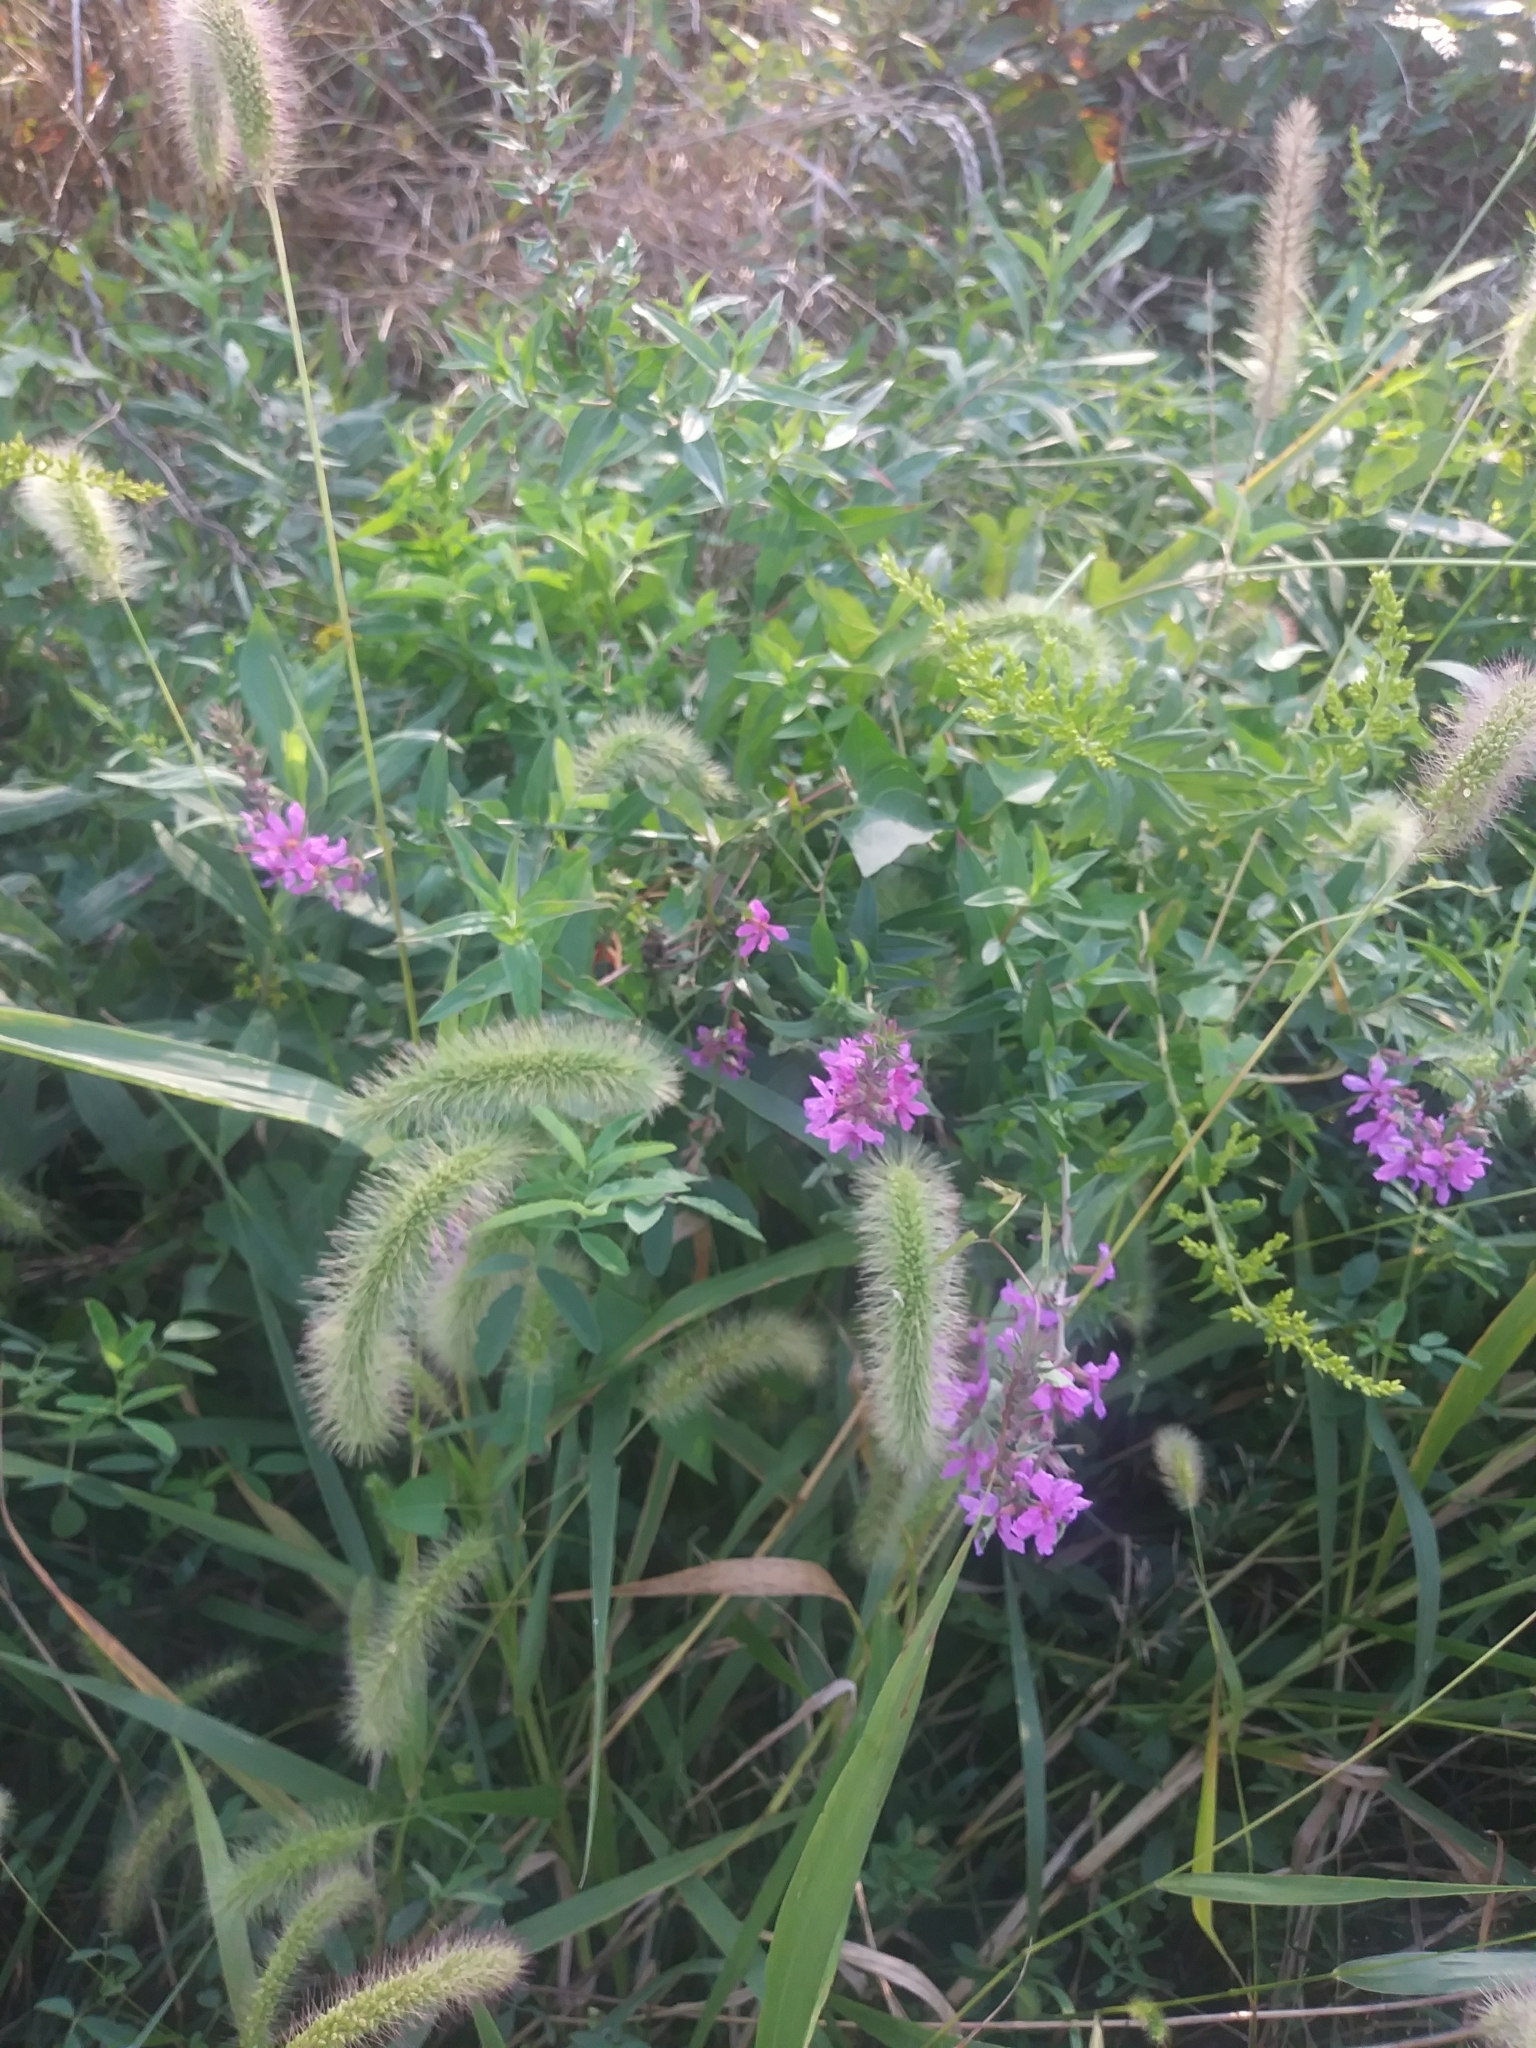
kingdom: Plantae
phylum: Tracheophyta
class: Magnoliopsida
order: Myrtales
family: Lythraceae
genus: Lythrum
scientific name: Lythrum salicaria
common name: Purple loosestrife
